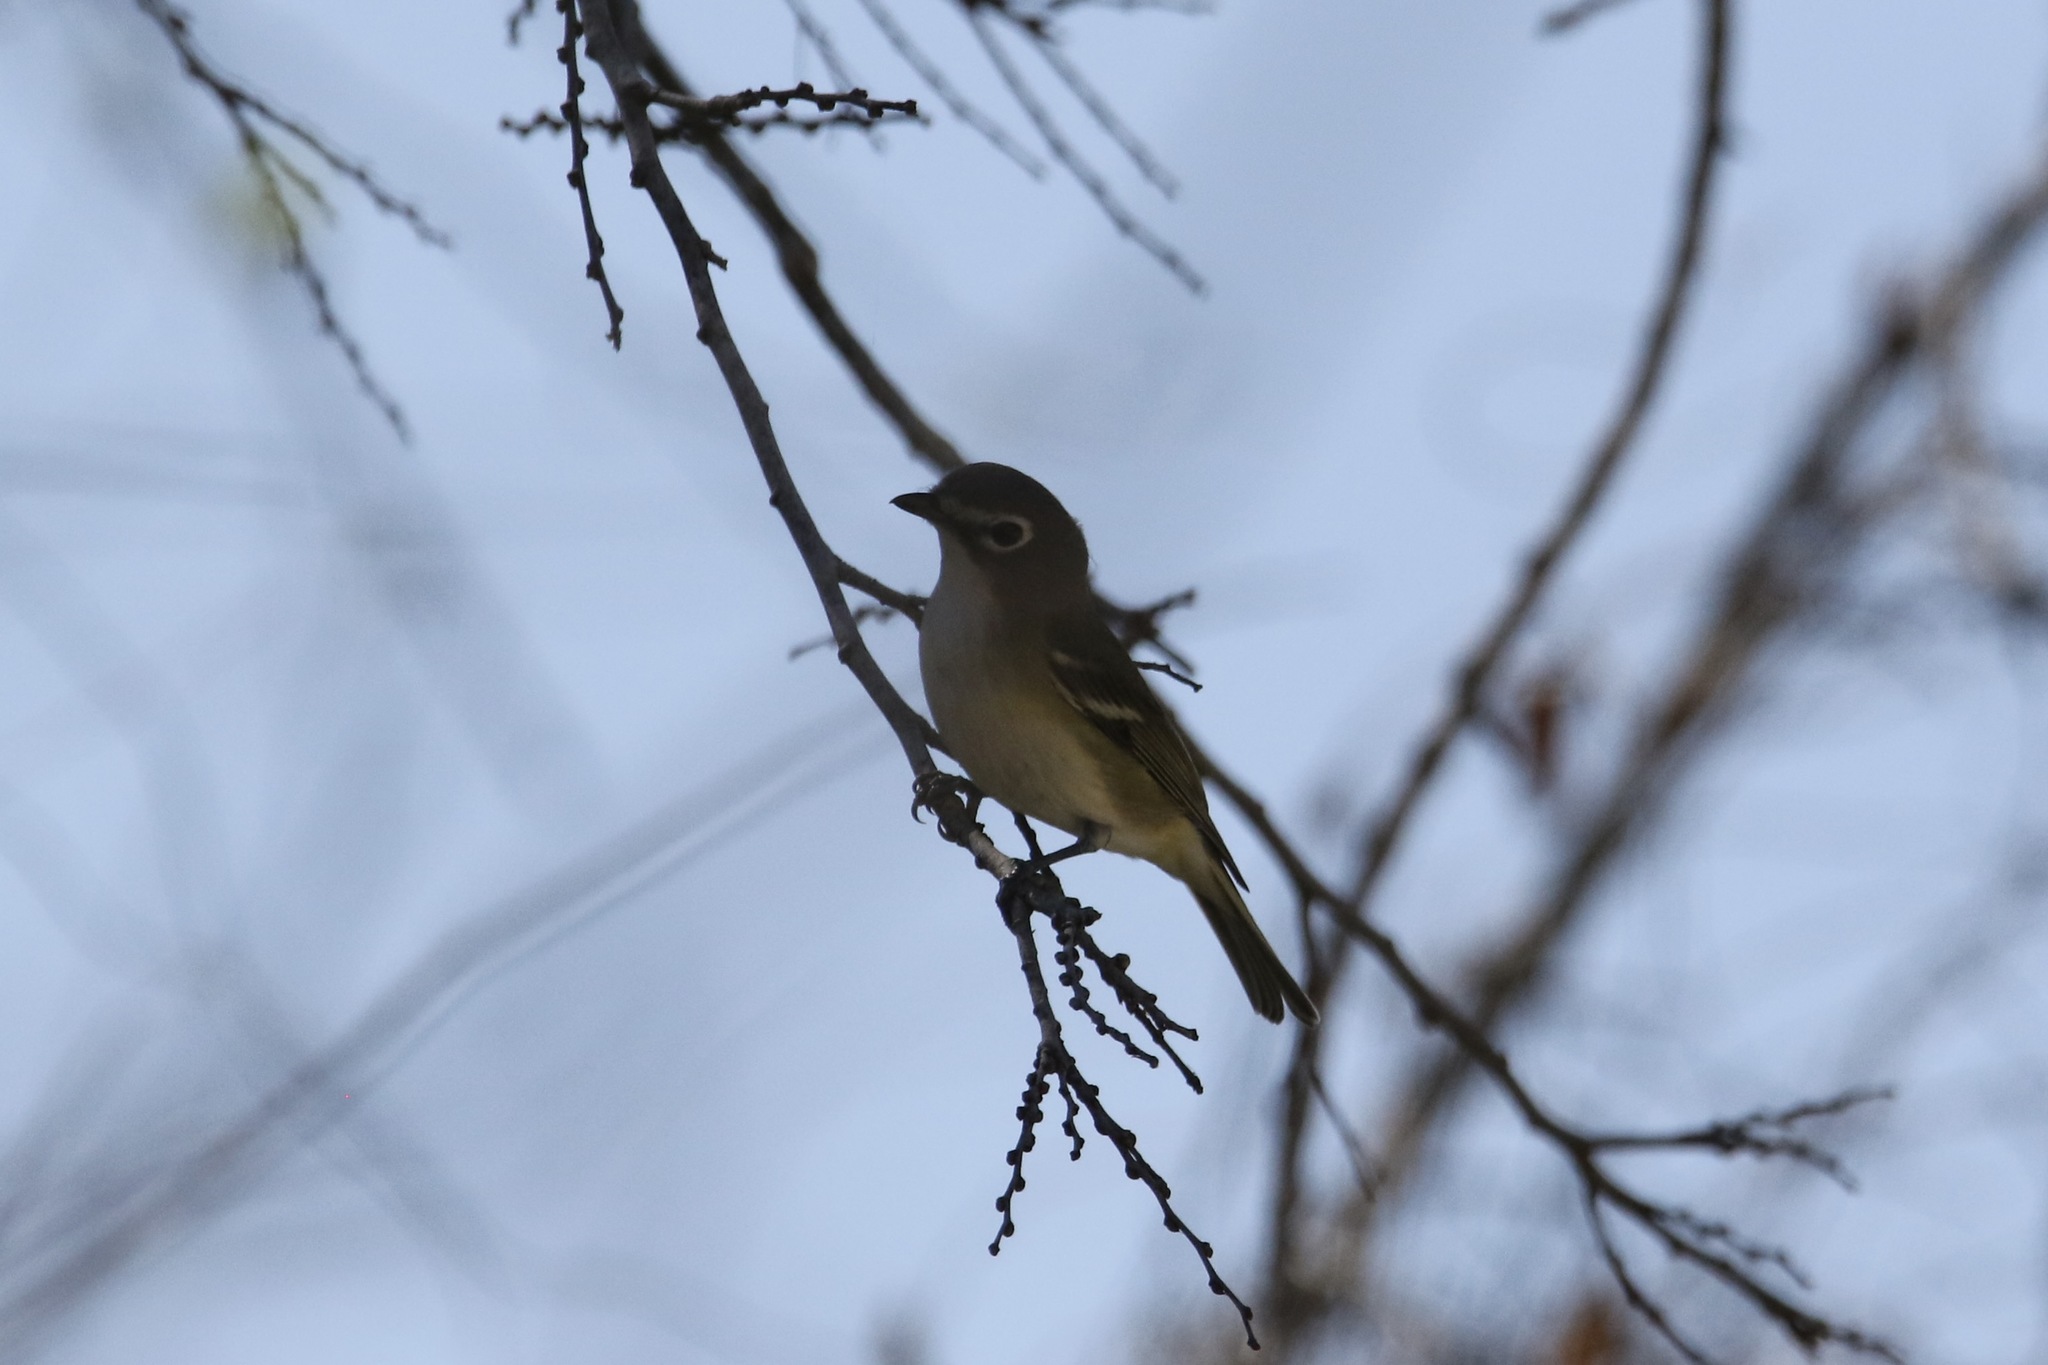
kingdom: Animalia
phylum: Chordata
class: Aves
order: Passeriformes
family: Vireonidae
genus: Vireo
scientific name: Vireo solitarius
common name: Blue-headed vireo
